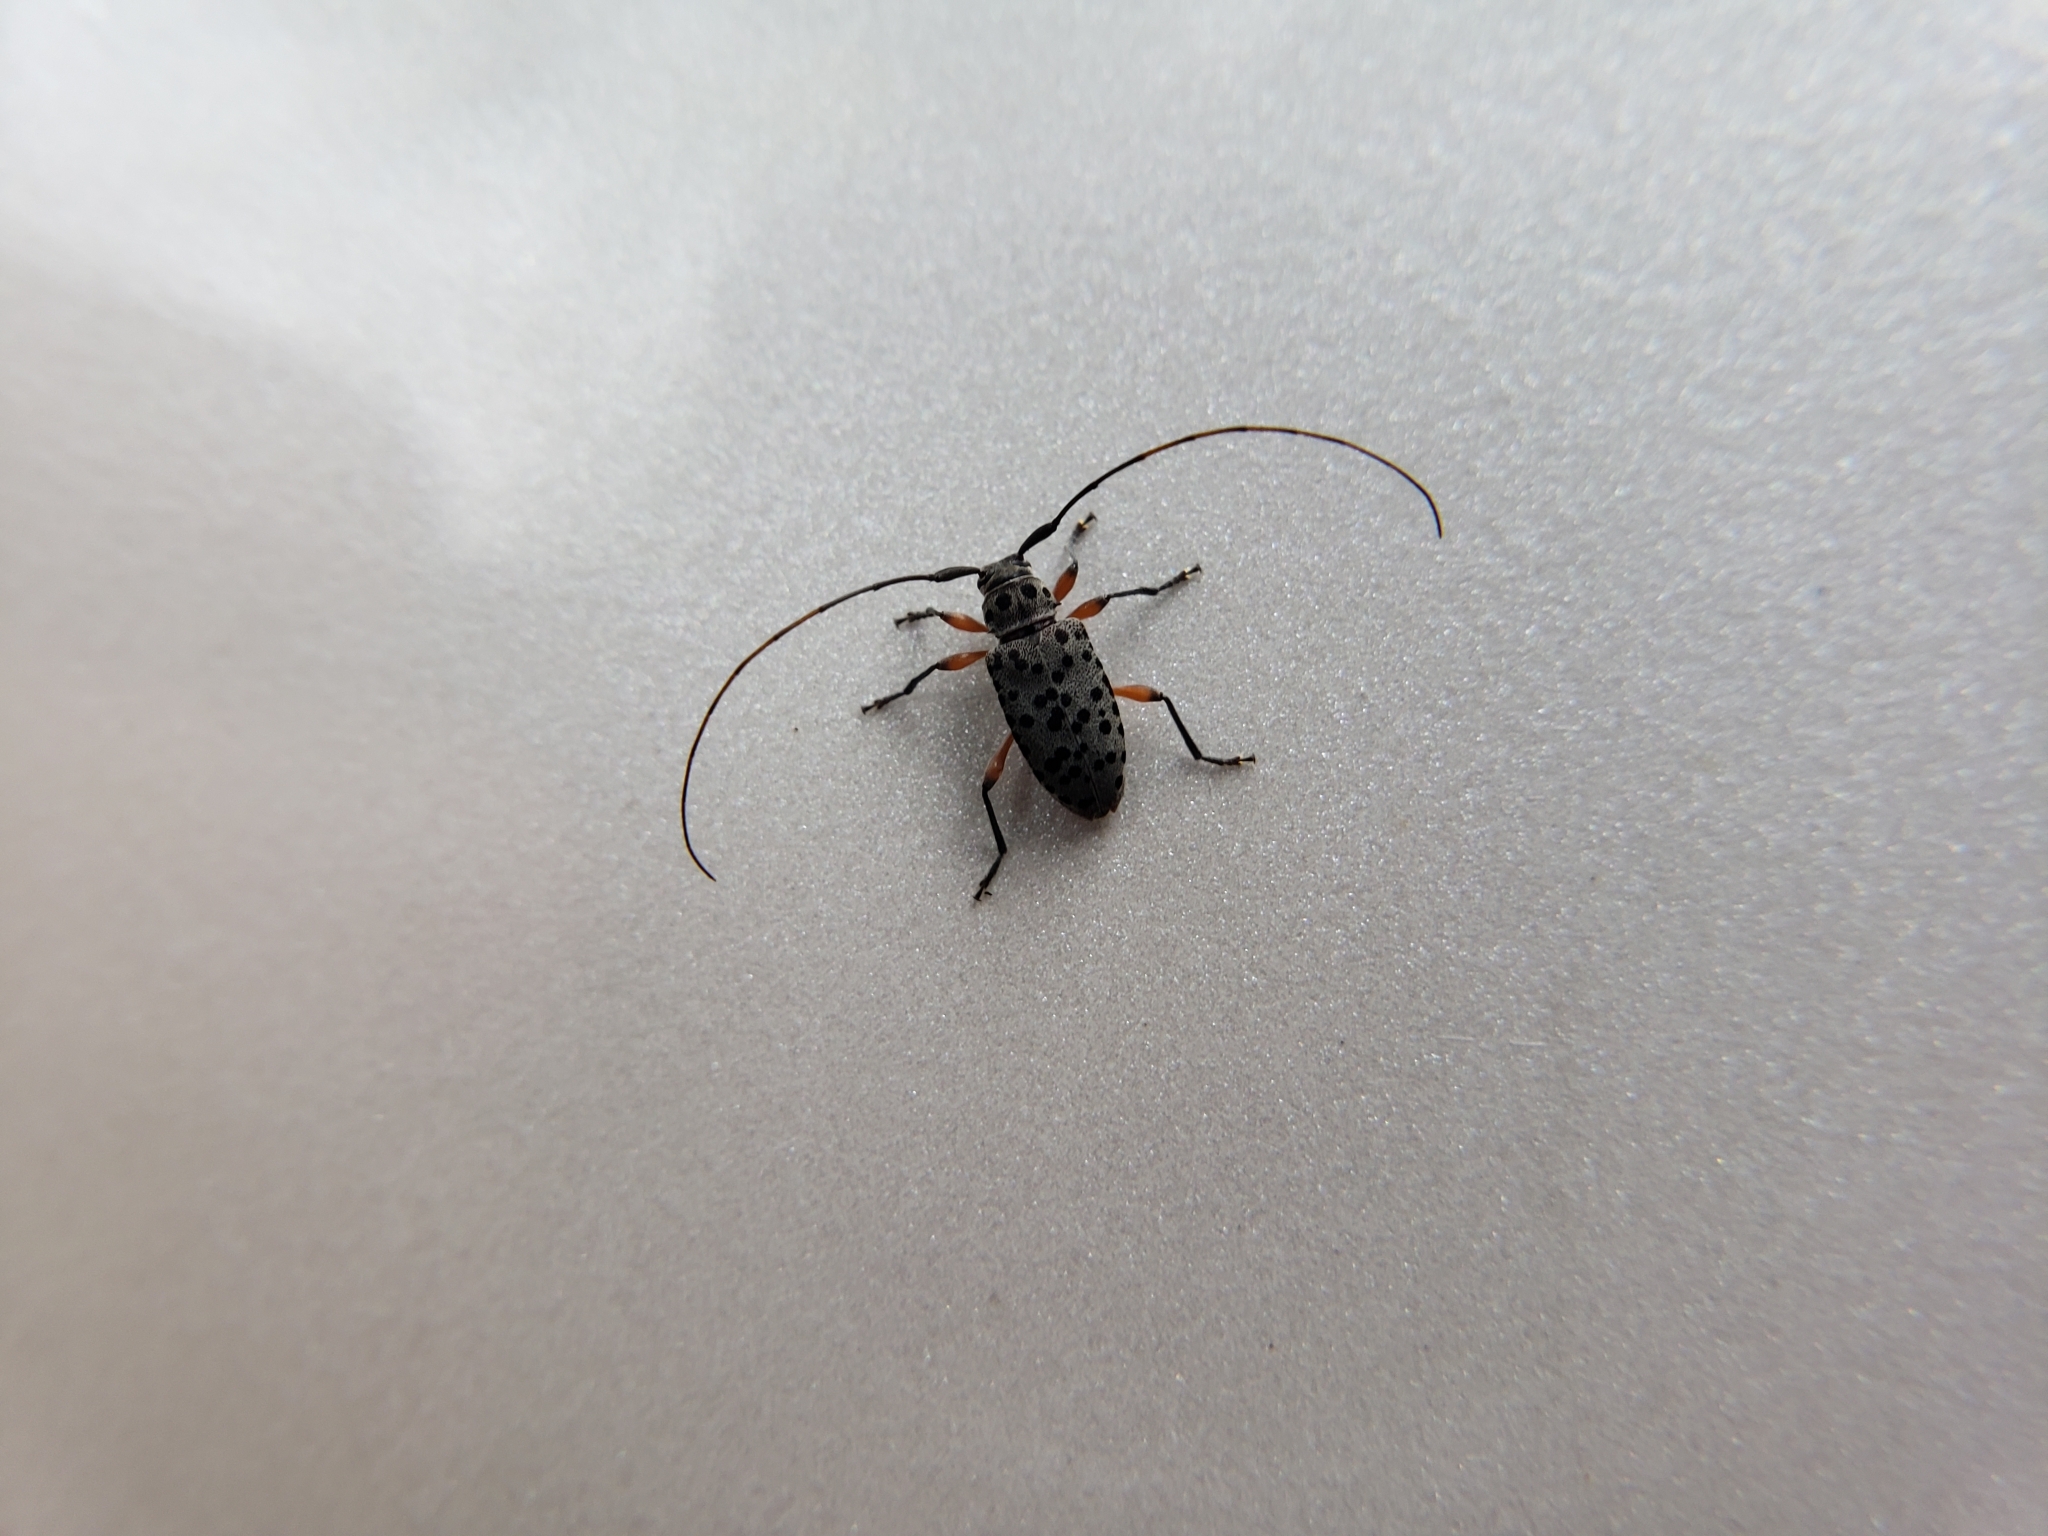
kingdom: Animalia
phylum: Arthropoda
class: Insecta
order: Coleoptera
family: Cerambycidae
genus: Hyperplatys
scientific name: Hyperplatys aspersa
